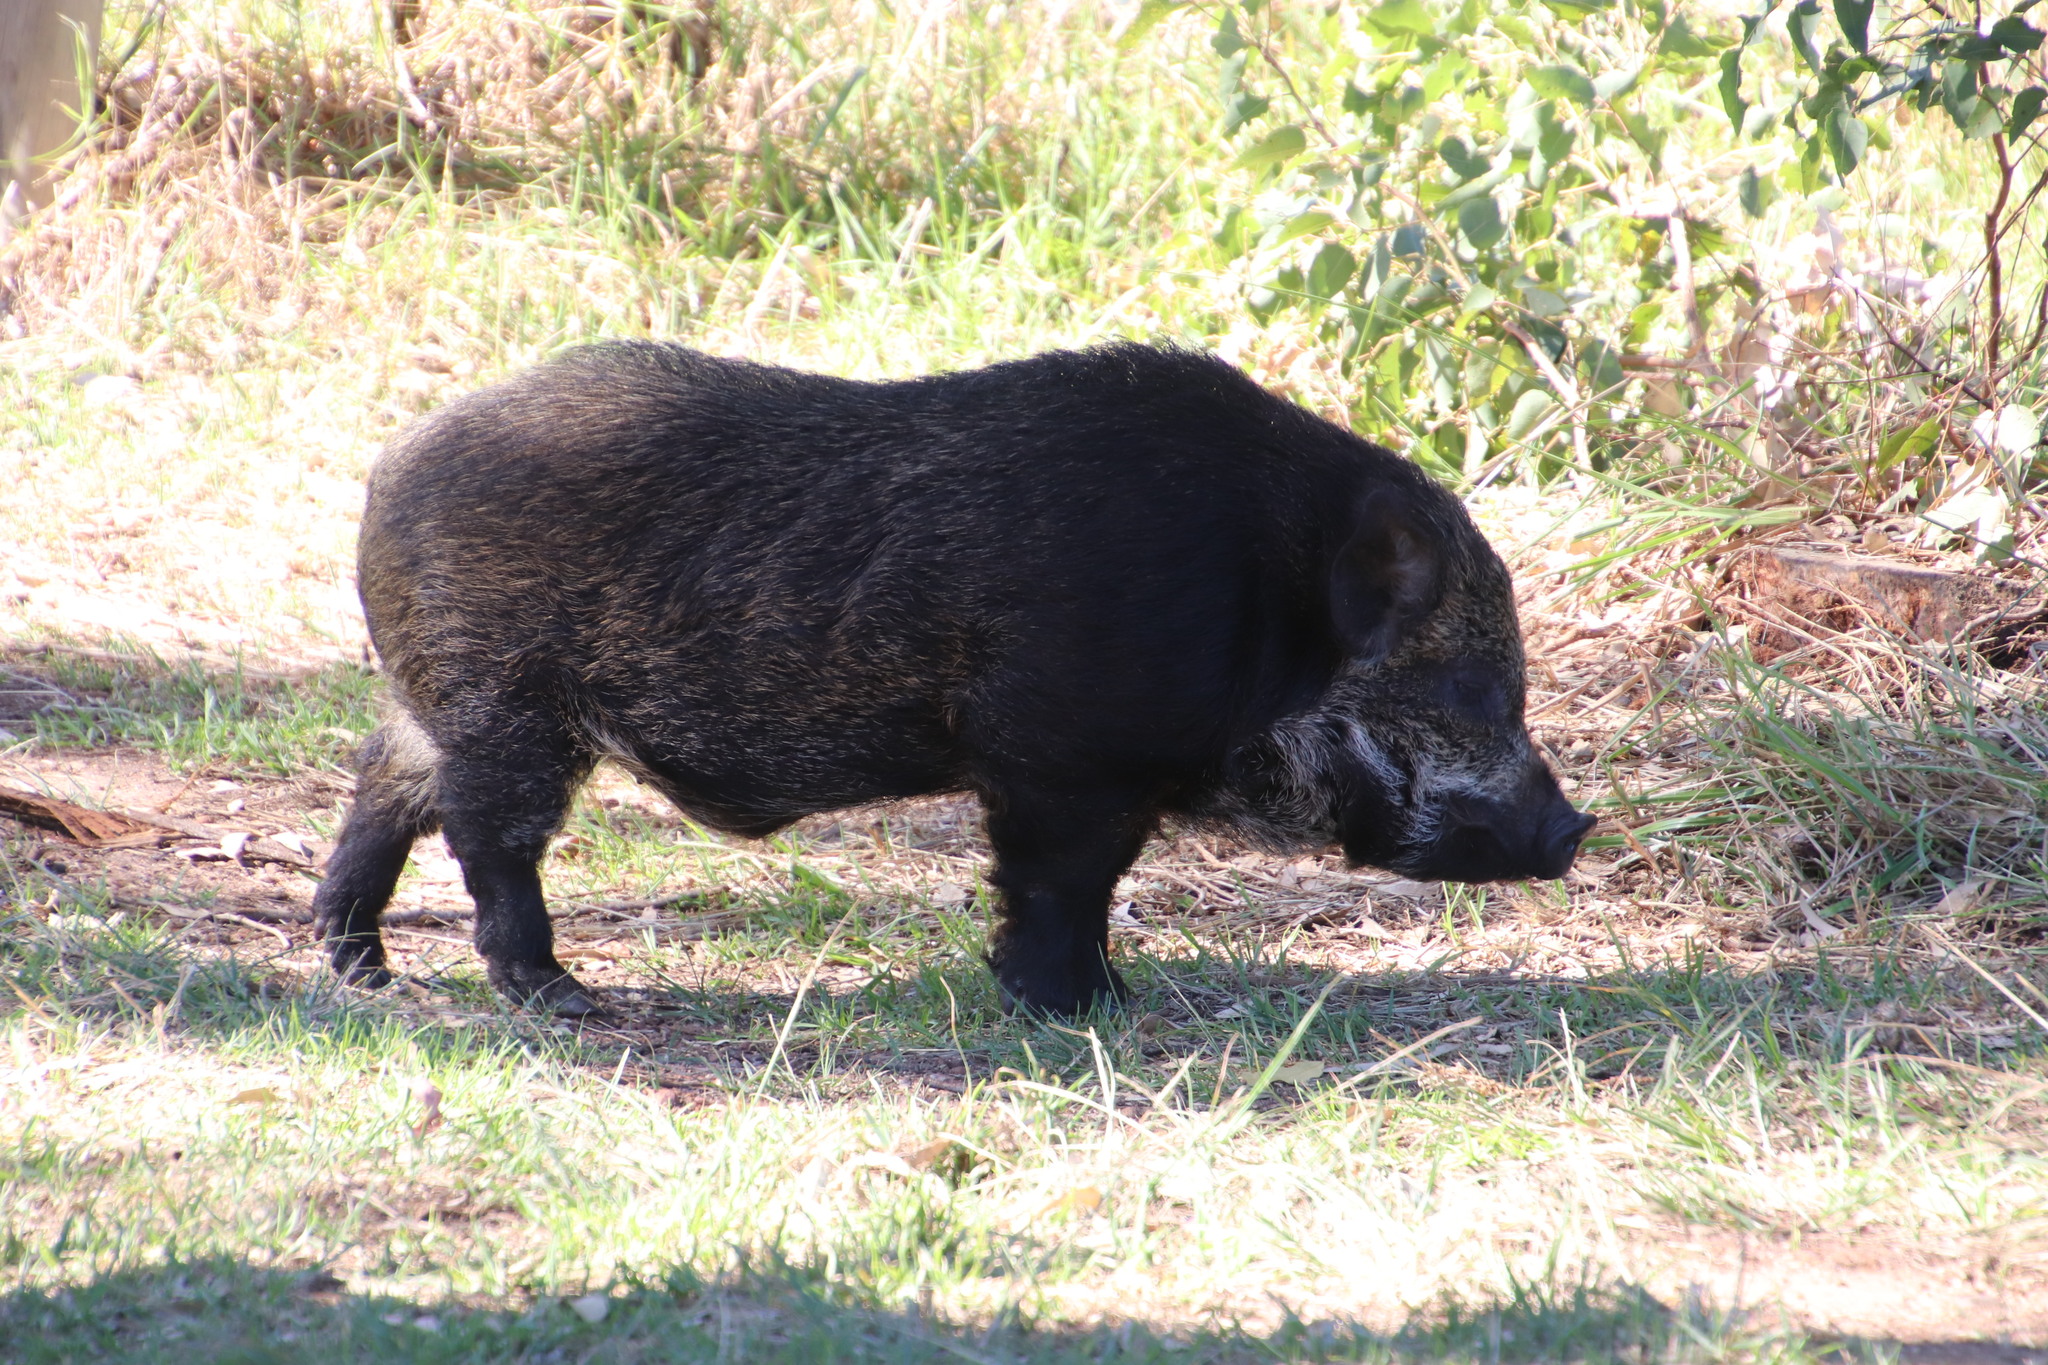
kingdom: Animalia
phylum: Chordata
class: Mammalia
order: Artiodactyla
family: Suidae
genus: Sus
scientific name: Sus scrofa
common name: Wild boar
